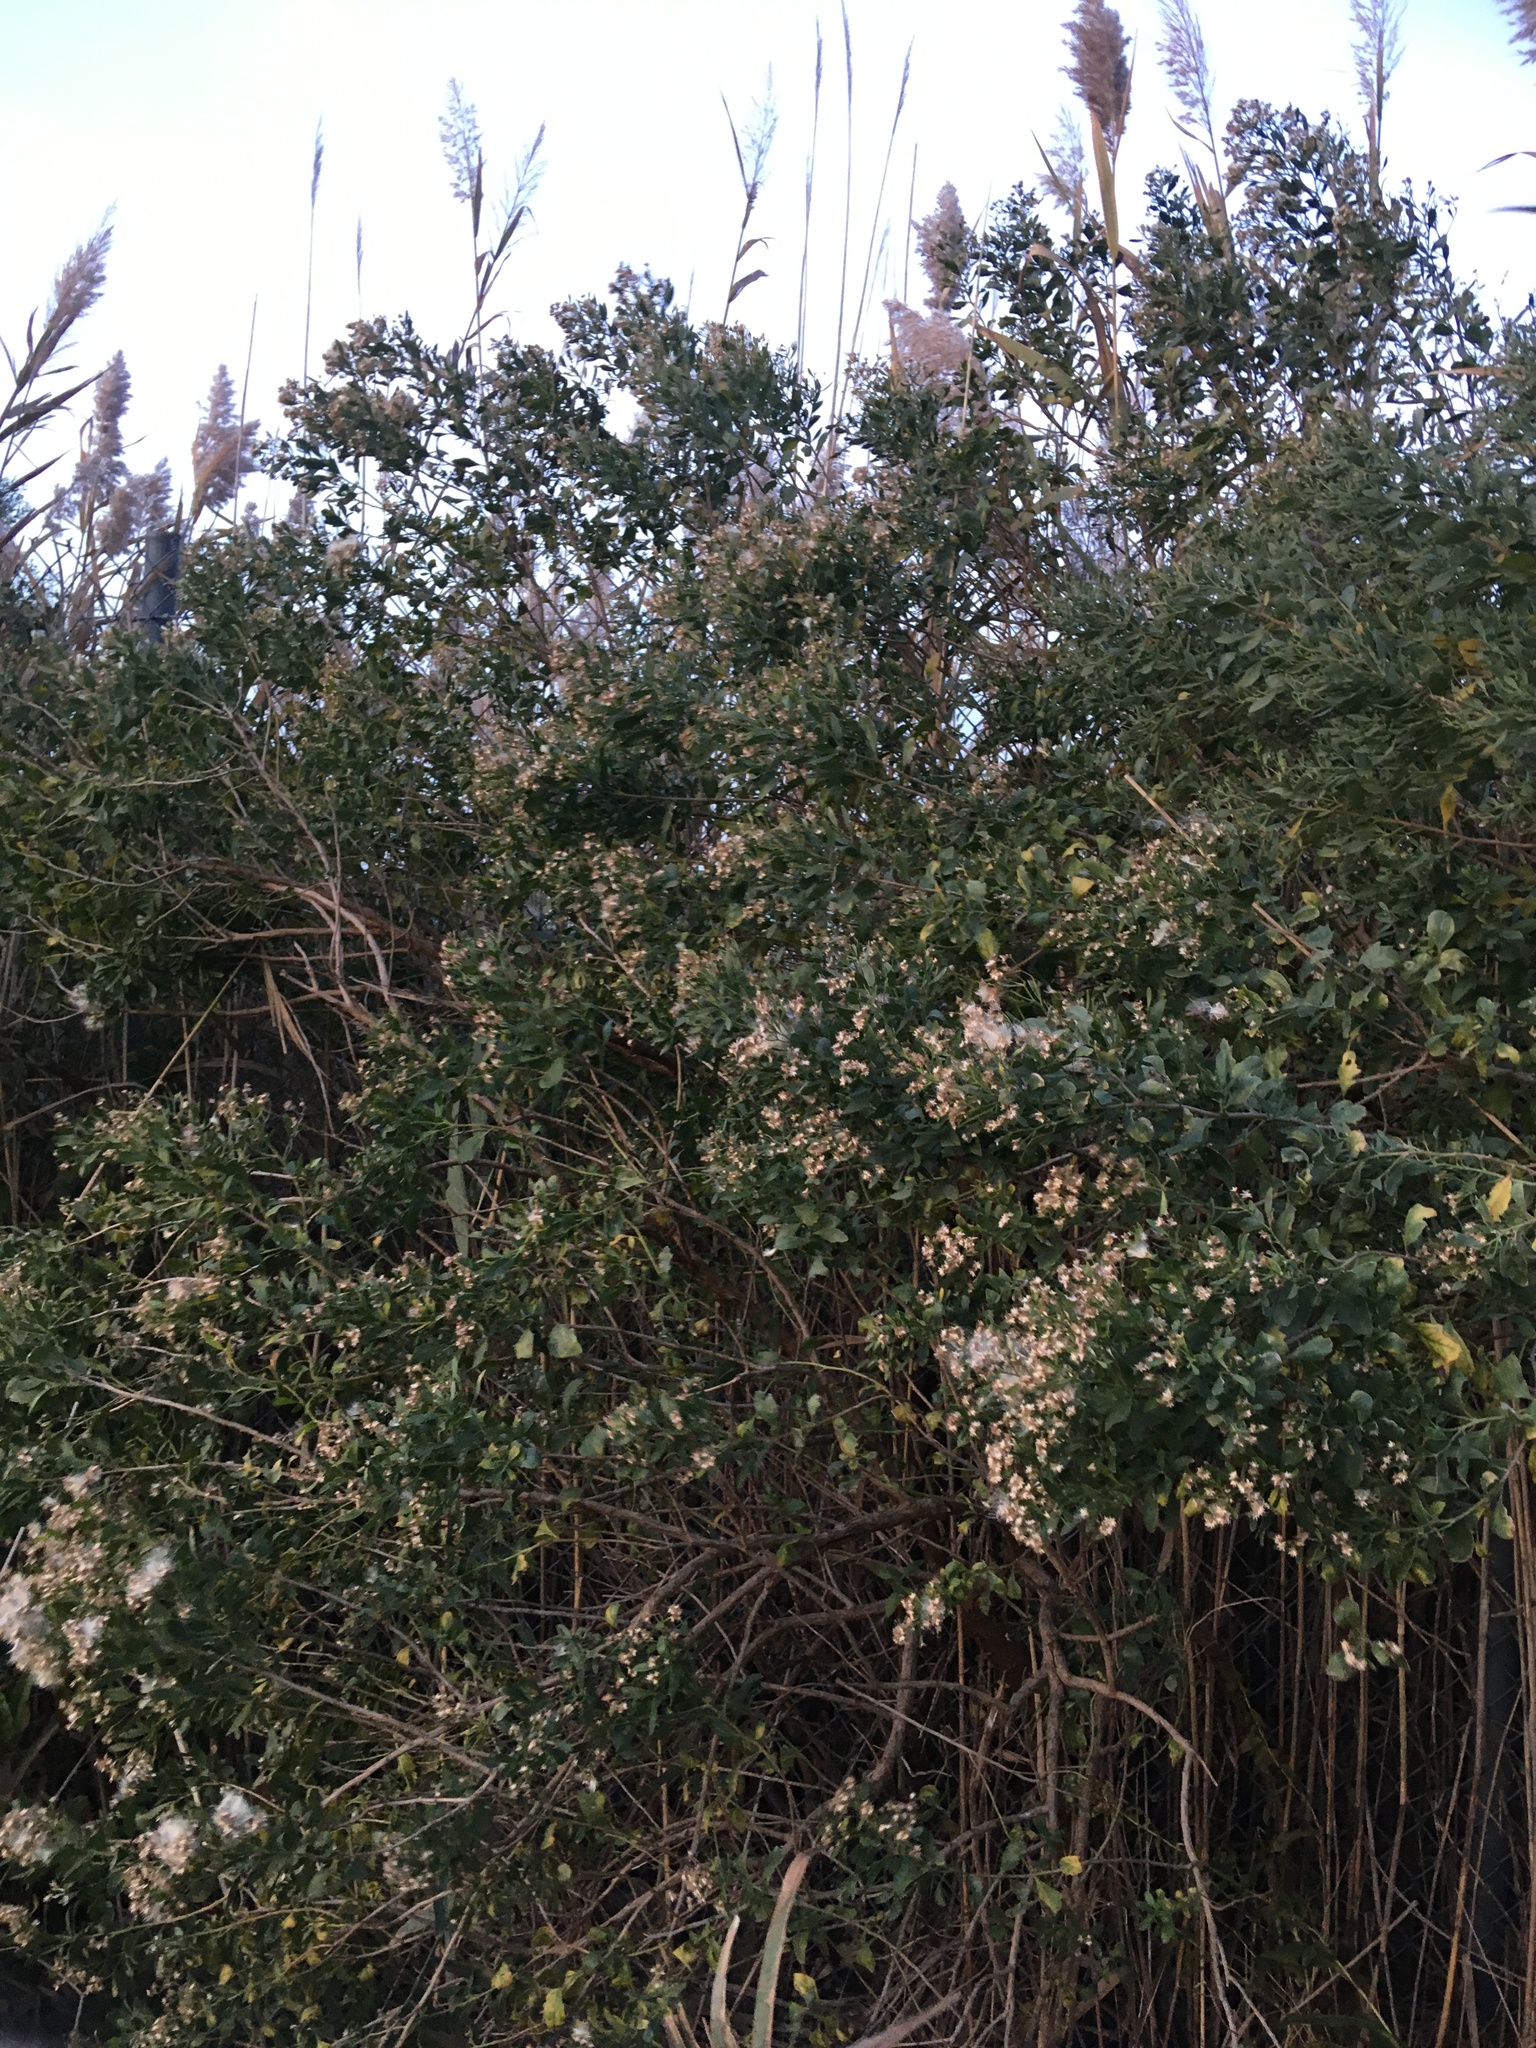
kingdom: Plantae
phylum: Tracheophyta
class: Magnoliopsida
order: Asterales
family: Asteraceae
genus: Baccharis
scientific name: Baccharis halimifolia
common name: Eastern baccharis
